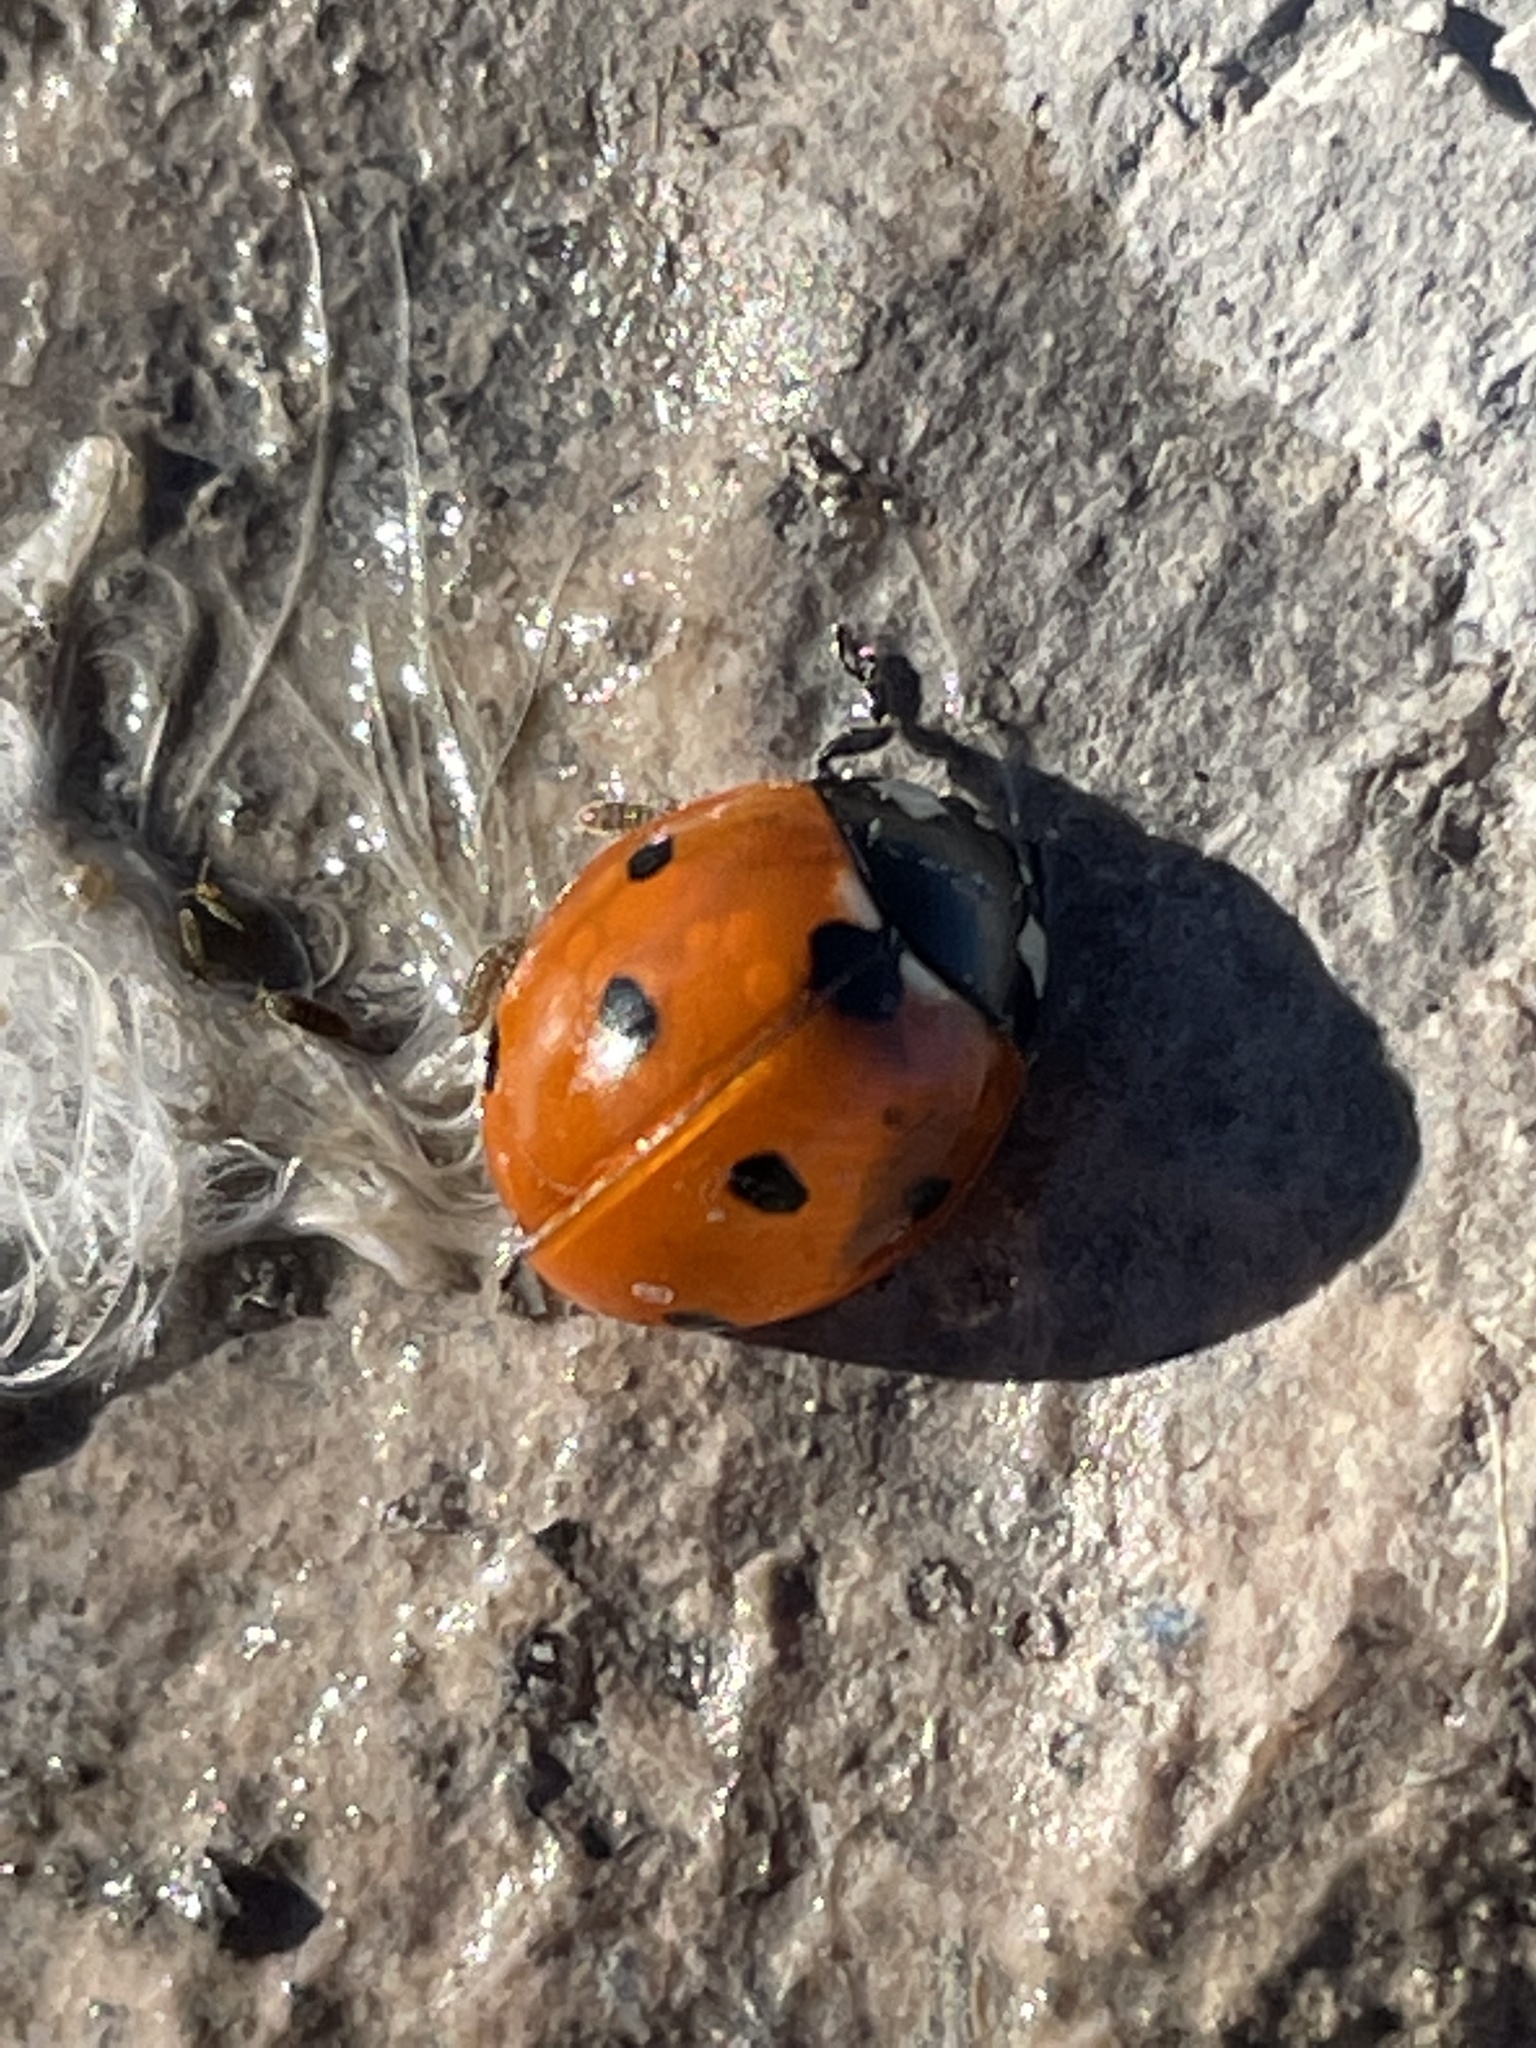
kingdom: Animalia
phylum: Arthropoda
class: Insecta
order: Coleoptera
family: Coccinellidae
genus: Coccinella
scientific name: Coccinella septempunctata
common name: Sevenspotted lady beetle
